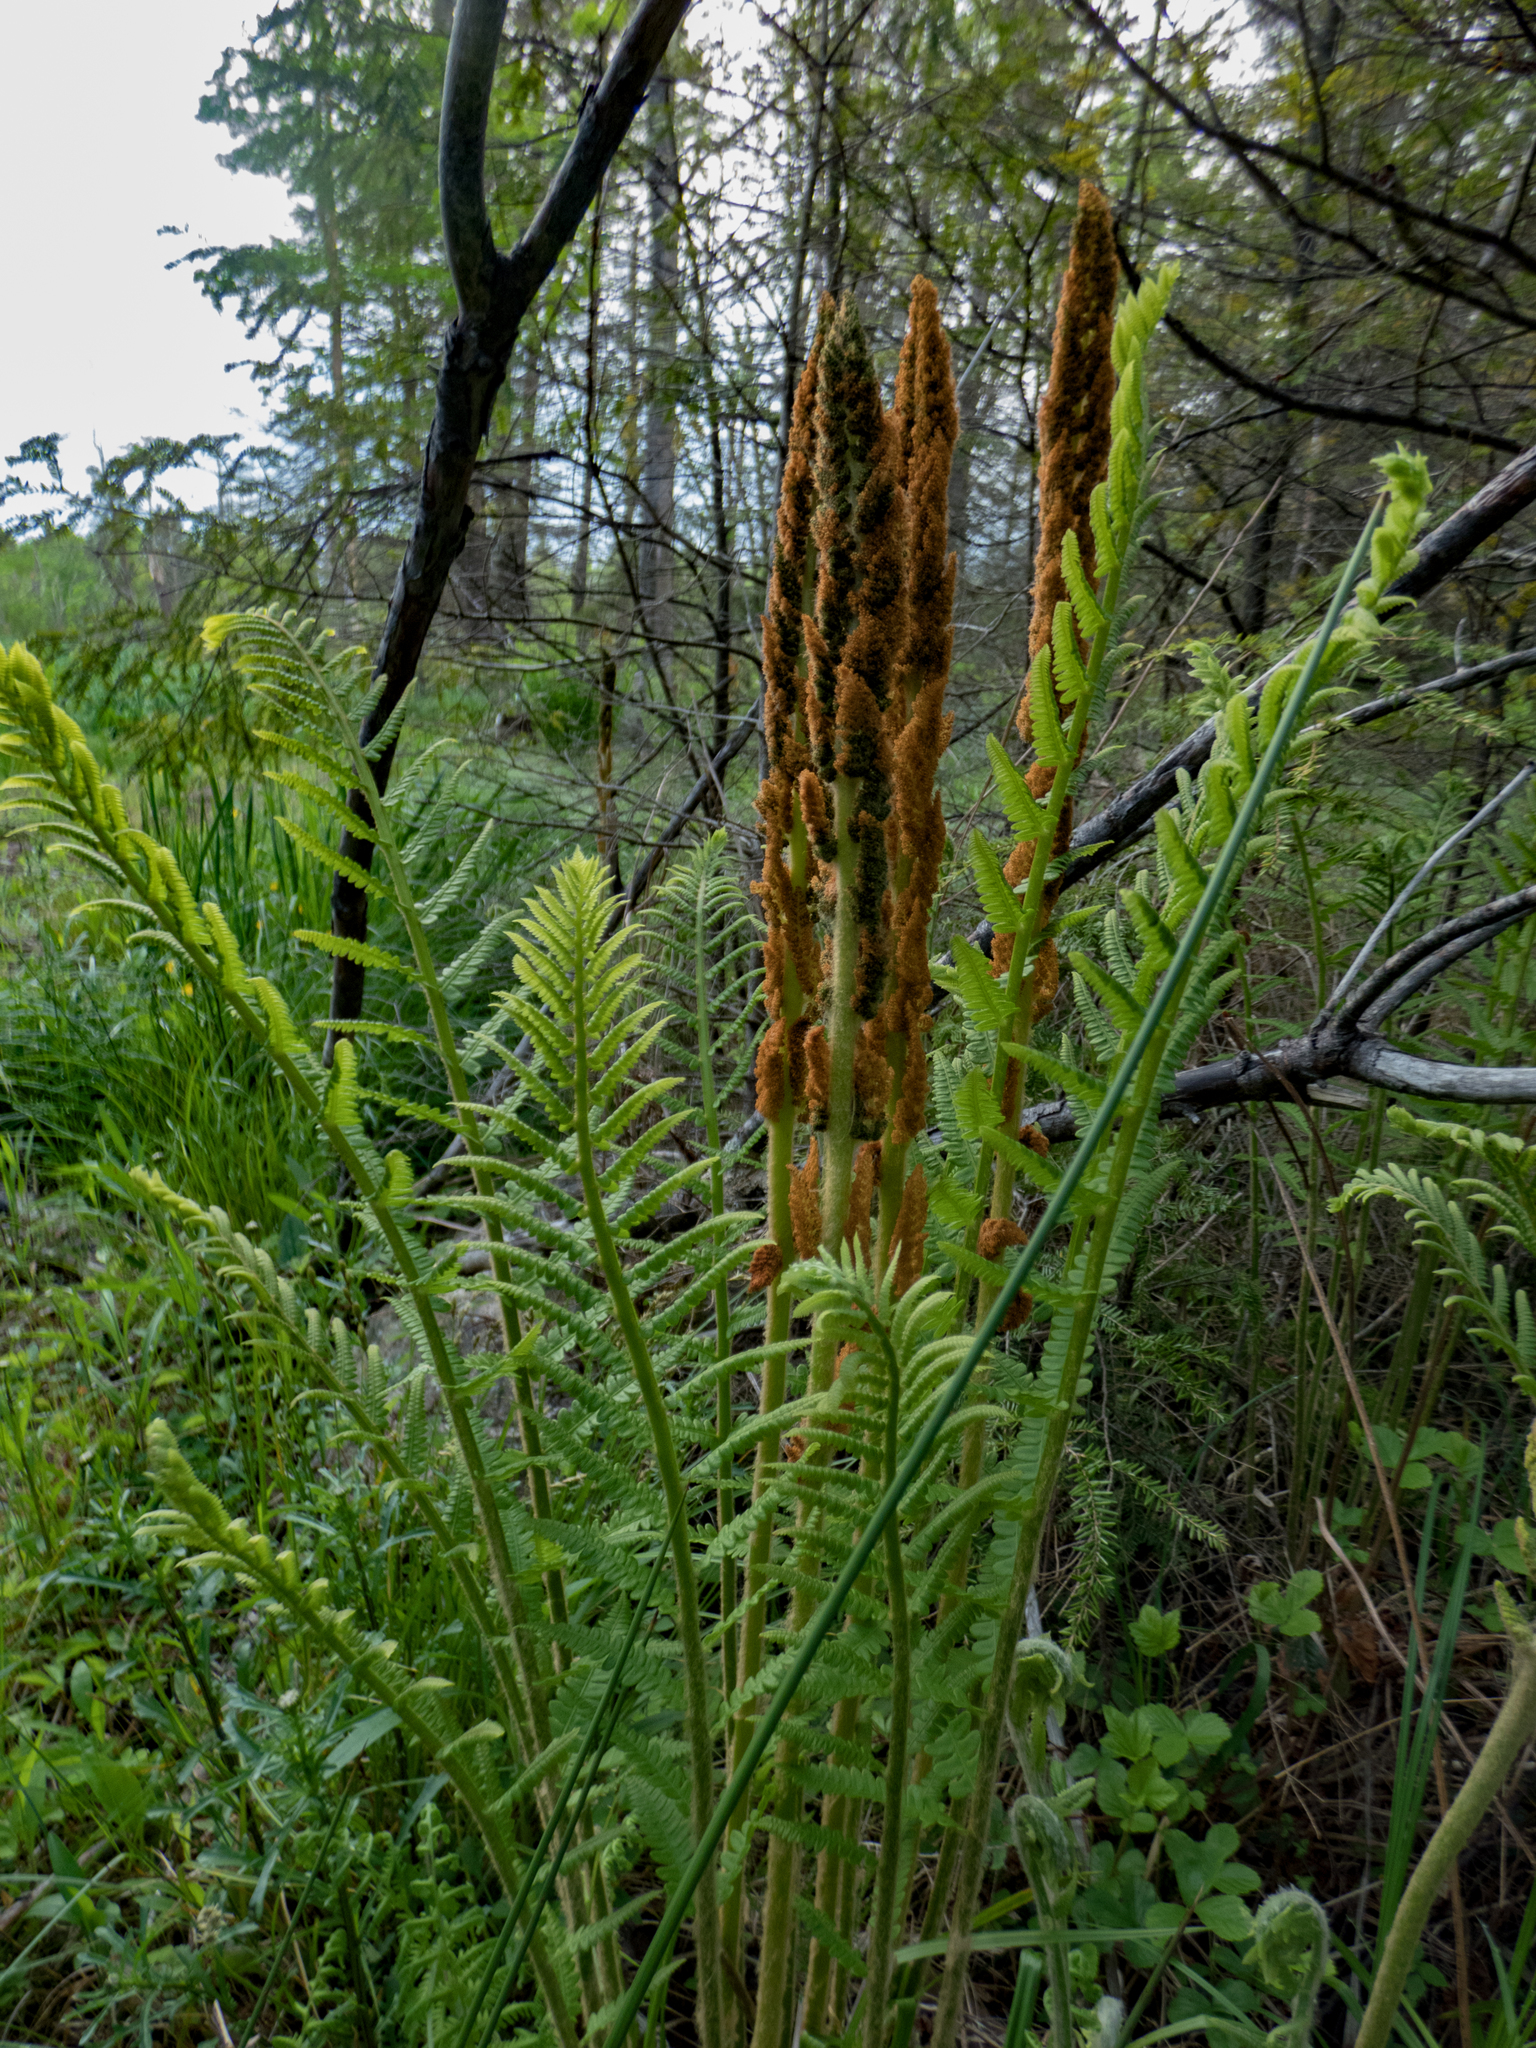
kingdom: Plantae
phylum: Tracheophyta
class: Polypodiopsida
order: Osmundales
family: Osmundaceae
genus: Osmundastrum
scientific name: Osmundastrum cinnamomeum
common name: Cinnamon fern
